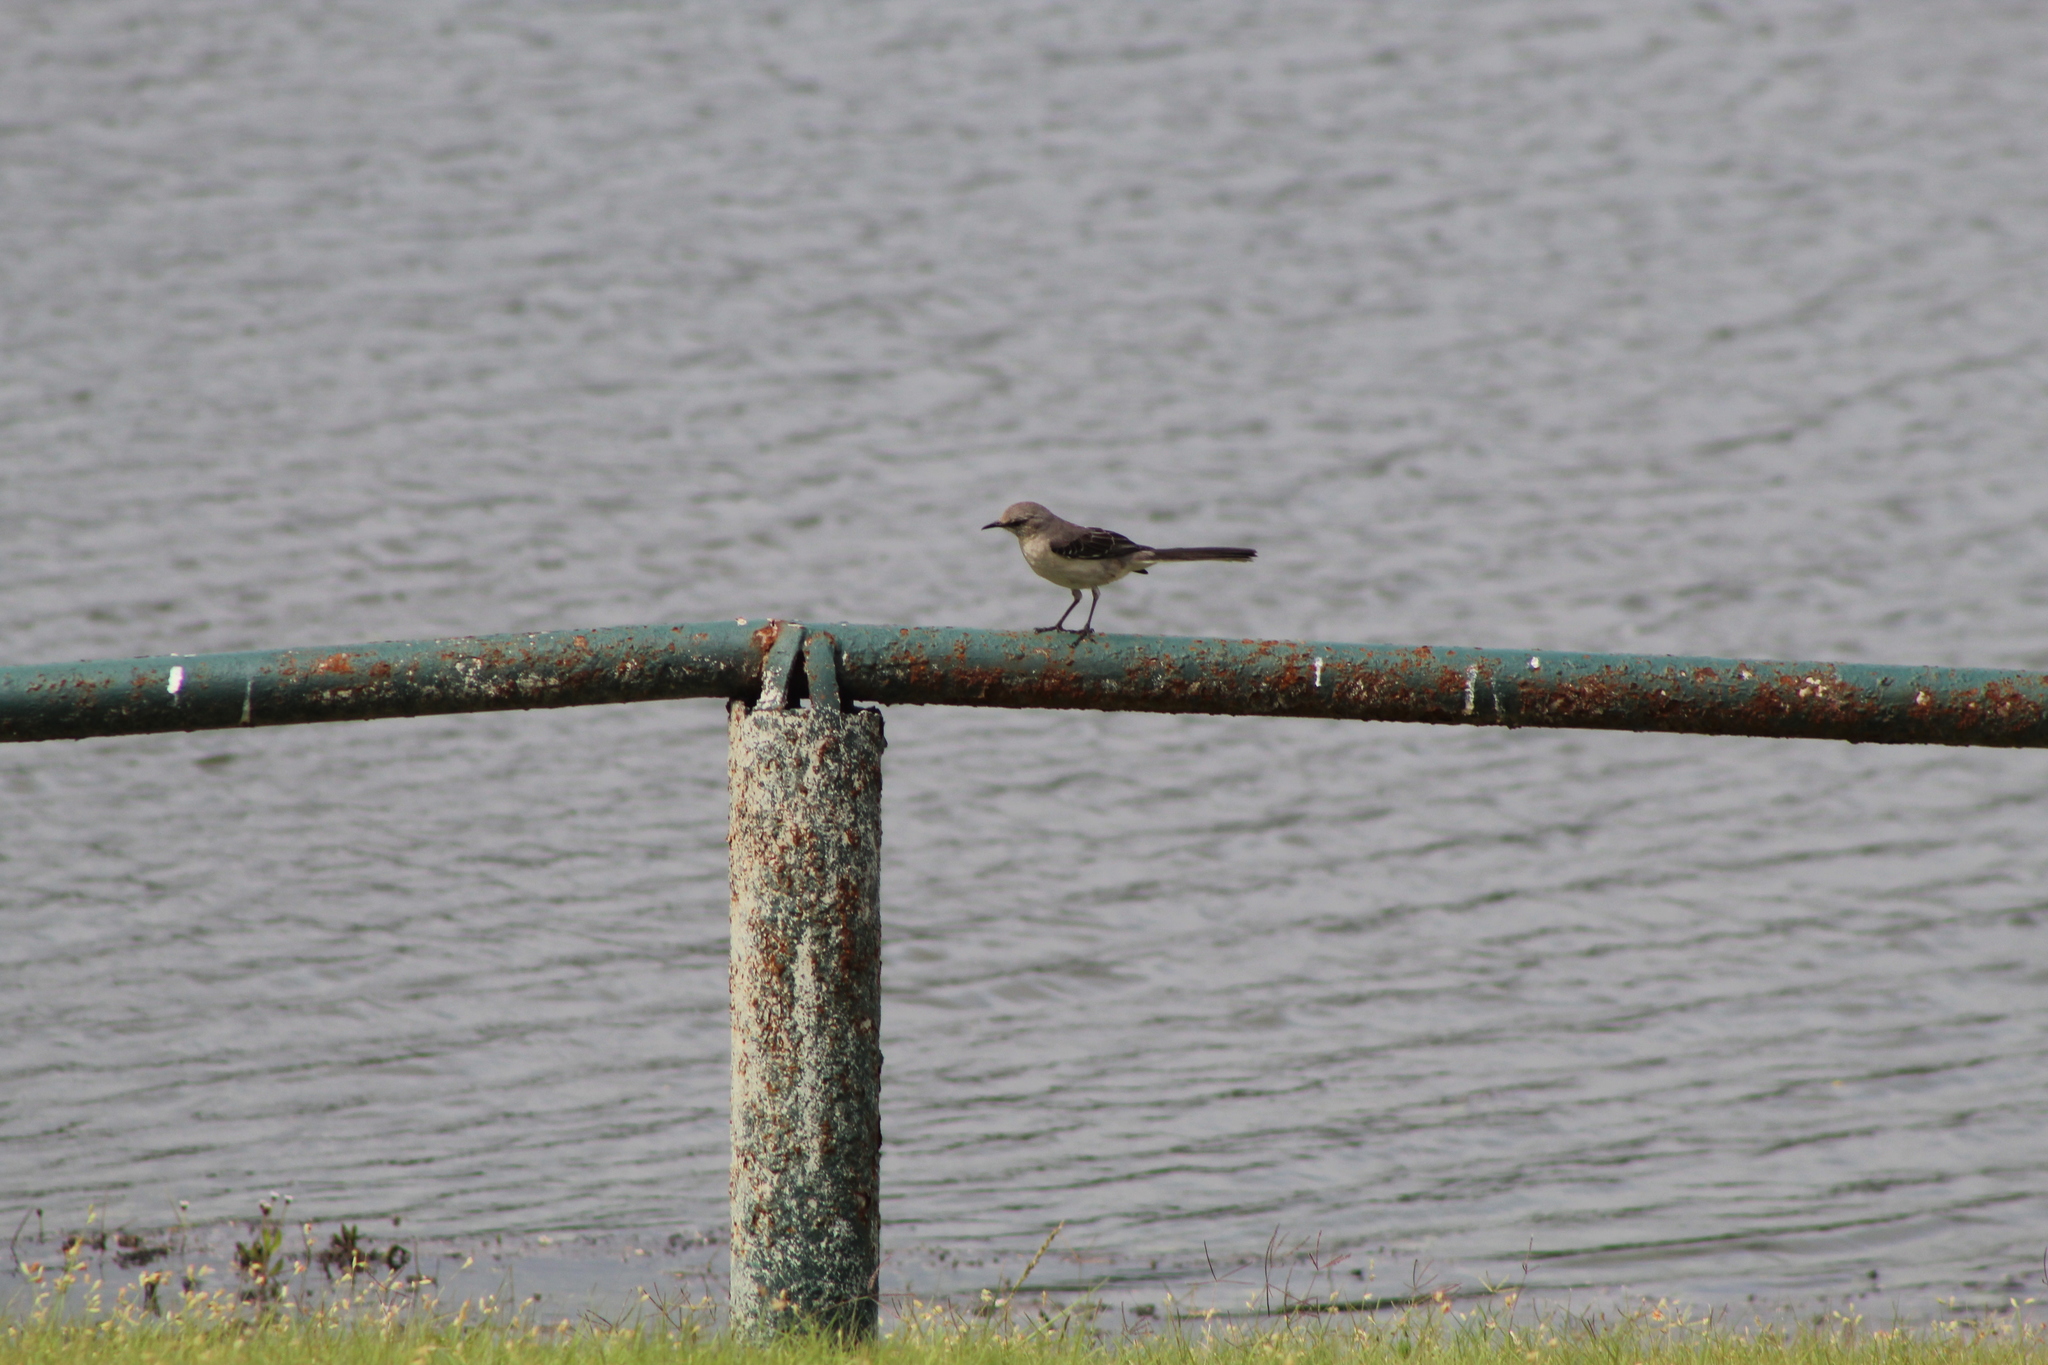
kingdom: Animalia
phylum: Chordata
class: Aves
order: Passeriformes
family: Mimidae
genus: Mimus
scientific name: Mimus polyglottos
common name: Northern mockingbird
